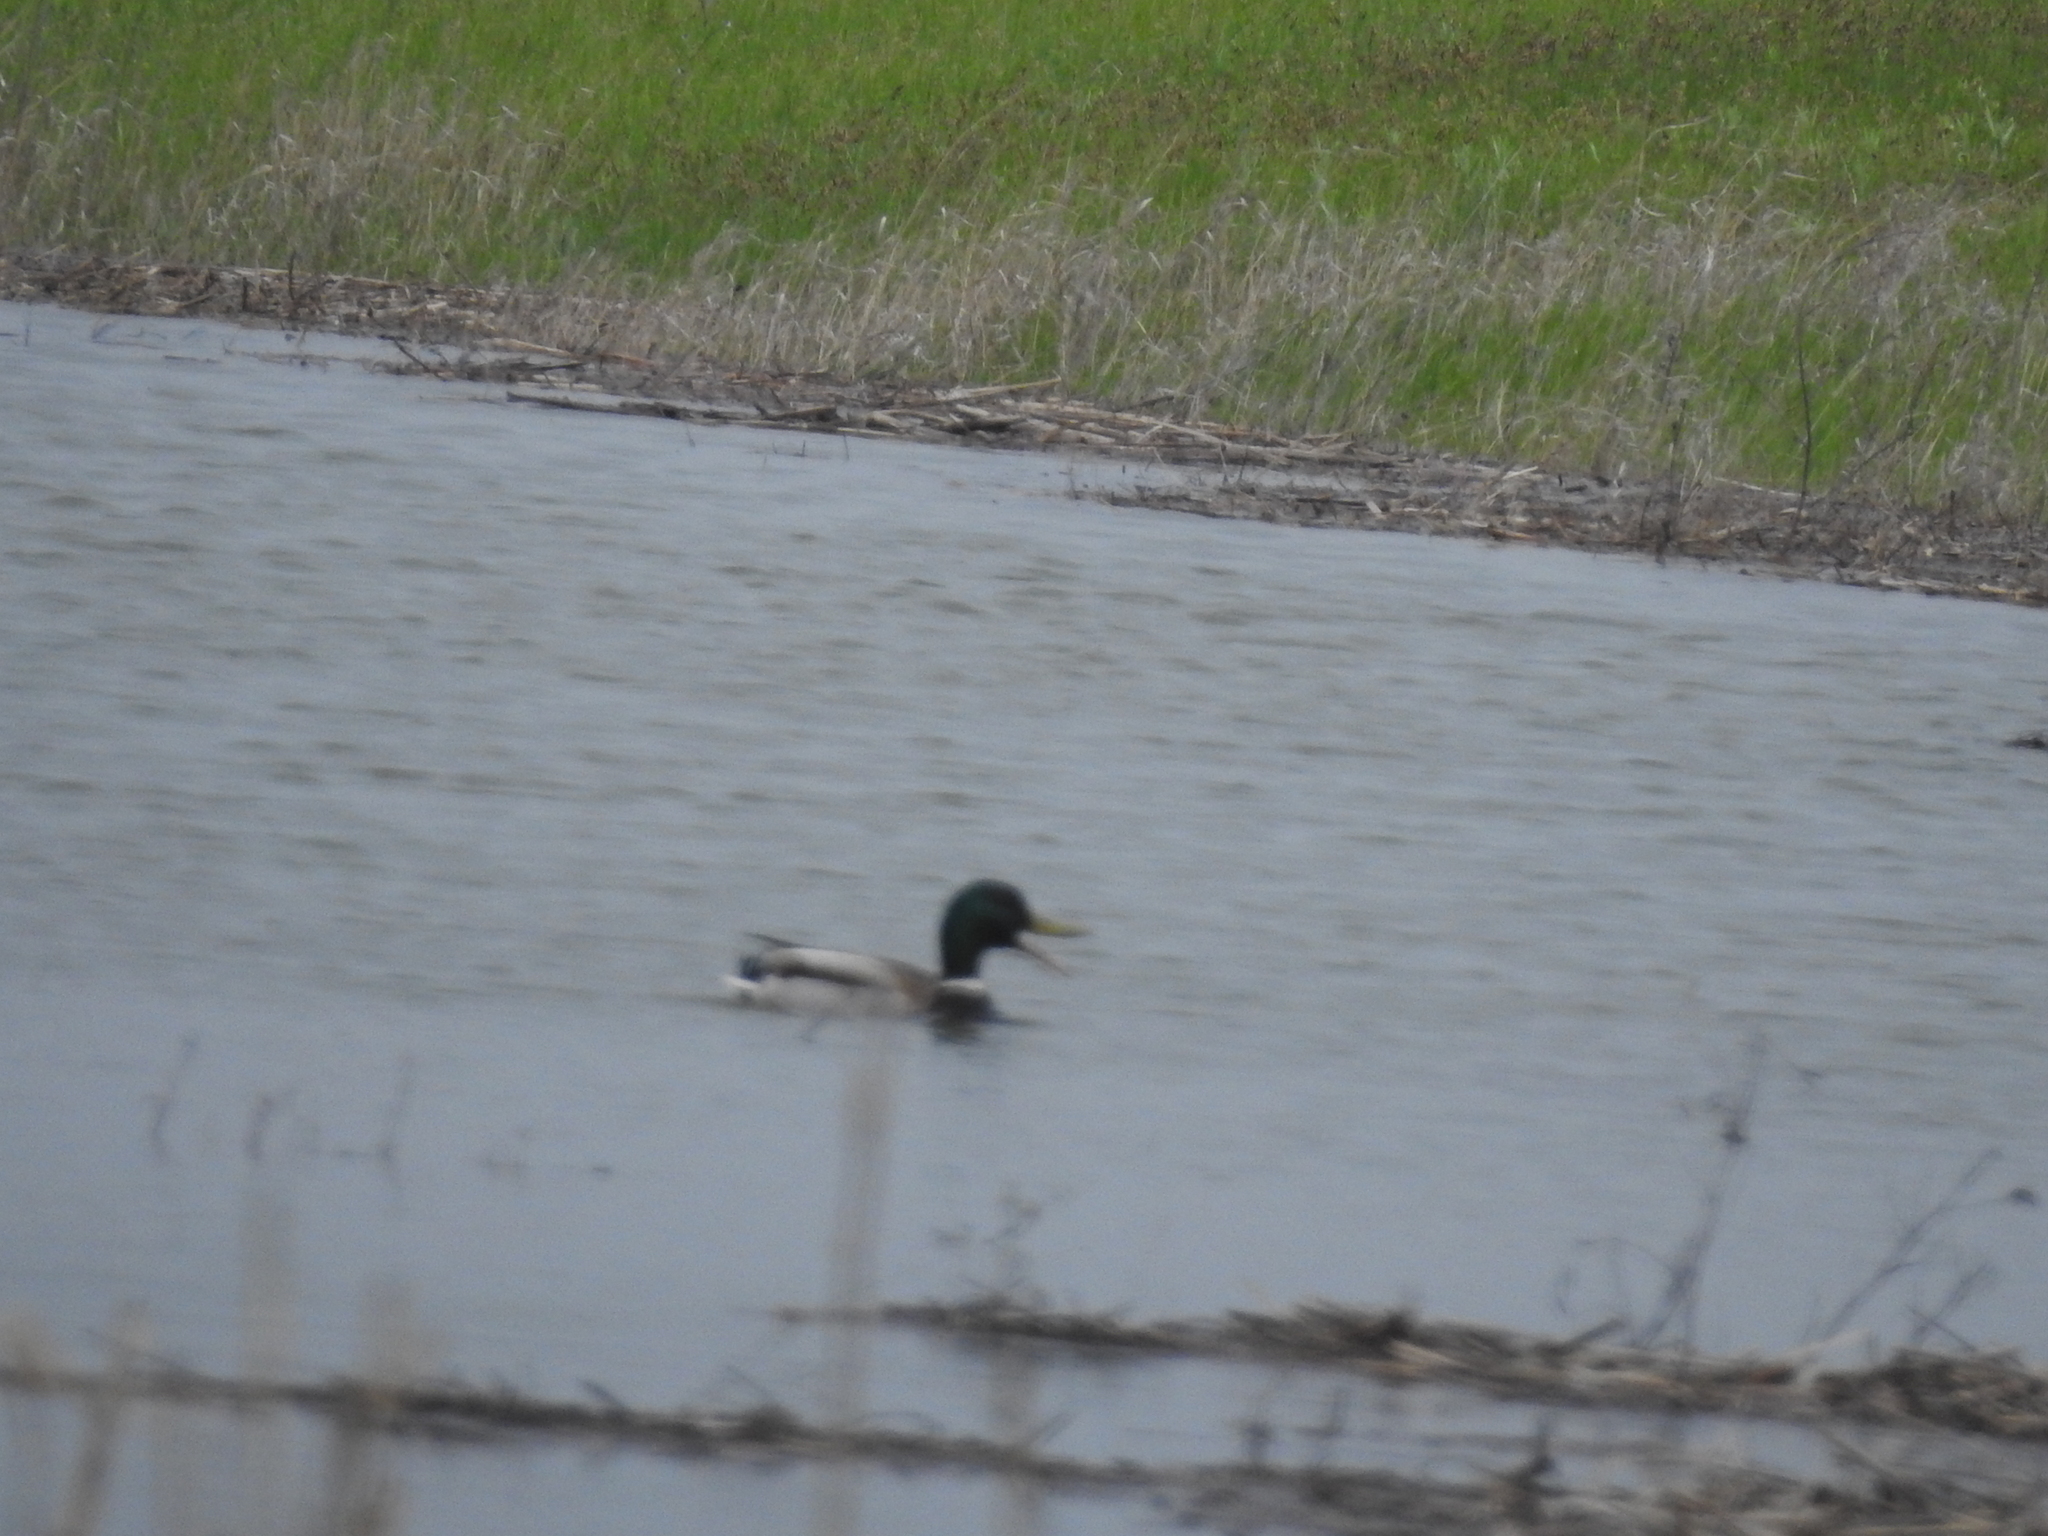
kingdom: Animalia
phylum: Chordata
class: Aves
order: Anseriformes
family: Anatidae
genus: Anas
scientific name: Anas platyrhynchos
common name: Mallard
